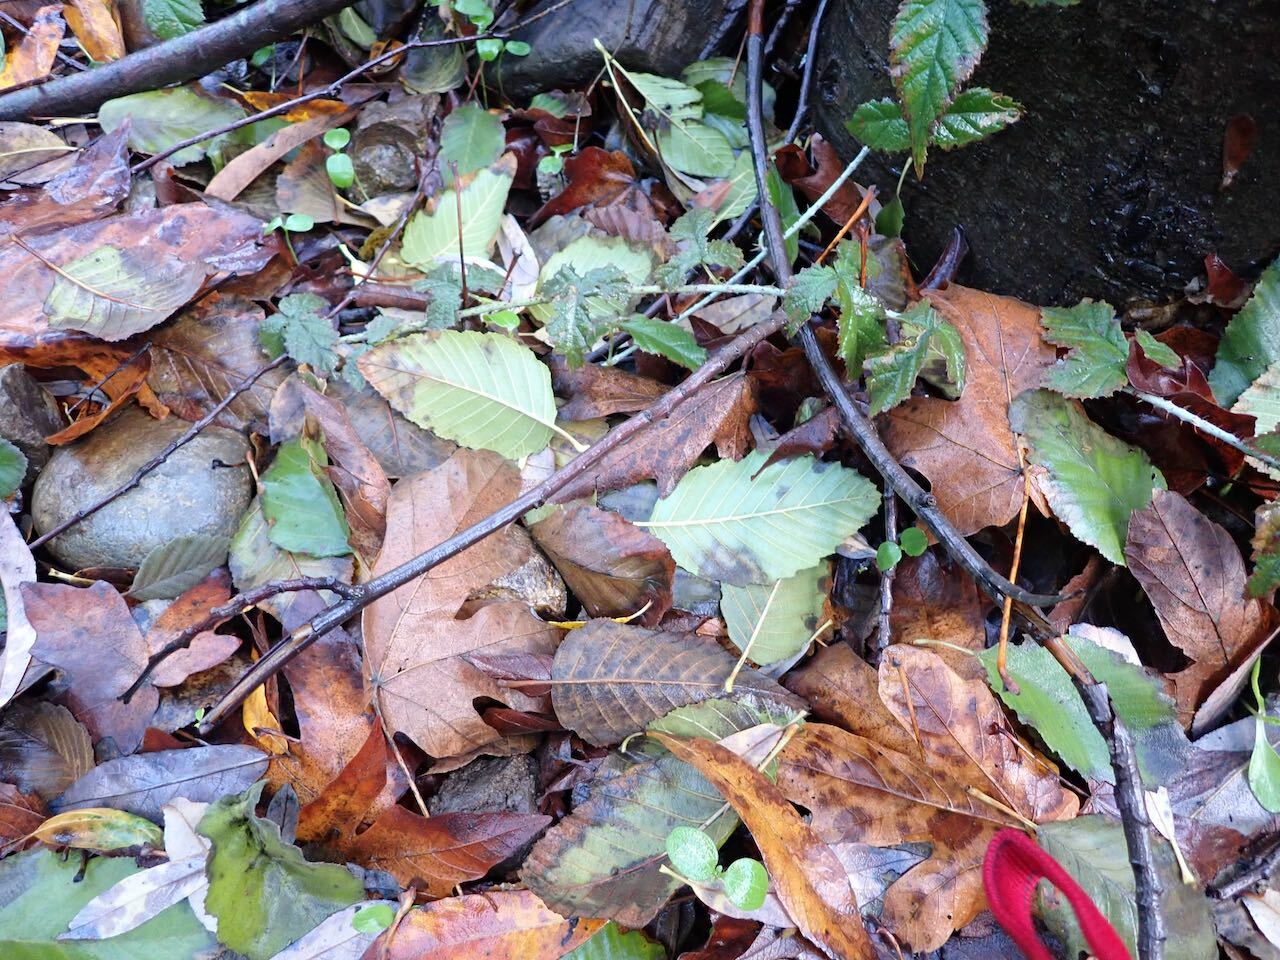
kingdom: Plantae
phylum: Tracheophyta
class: Magnoliopsida
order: Fagales
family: Betulaceae
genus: Alnus
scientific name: Alnus rhombifolia
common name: California alder
